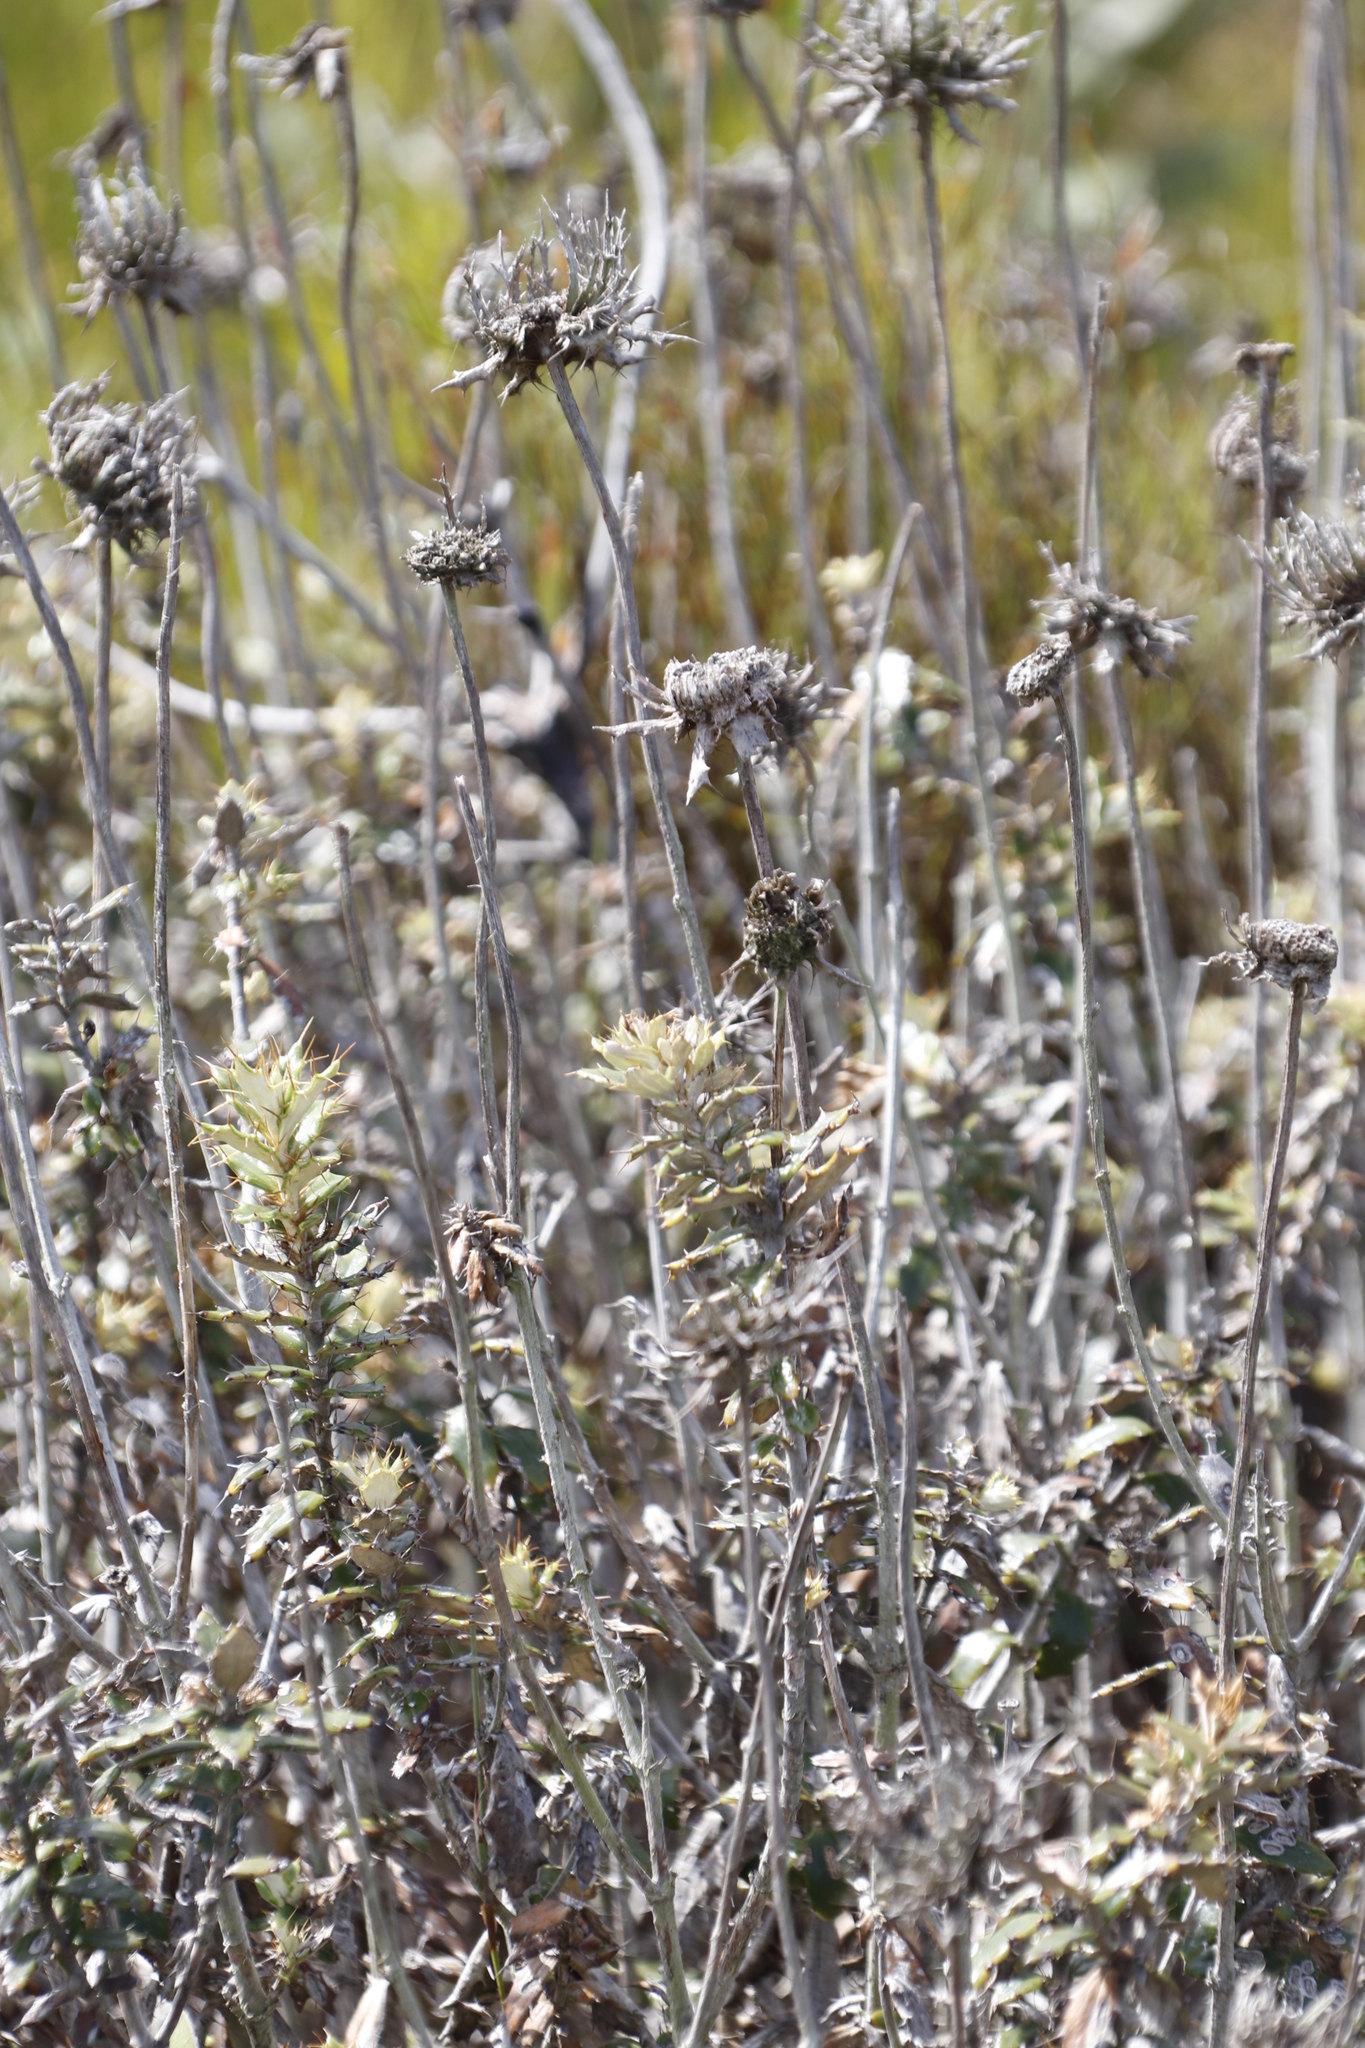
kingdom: Plantae
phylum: Tracheophyta
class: Magnoliopsida
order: Asterales
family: Asteraceae
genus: Berkheya
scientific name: Berkheya barbata
